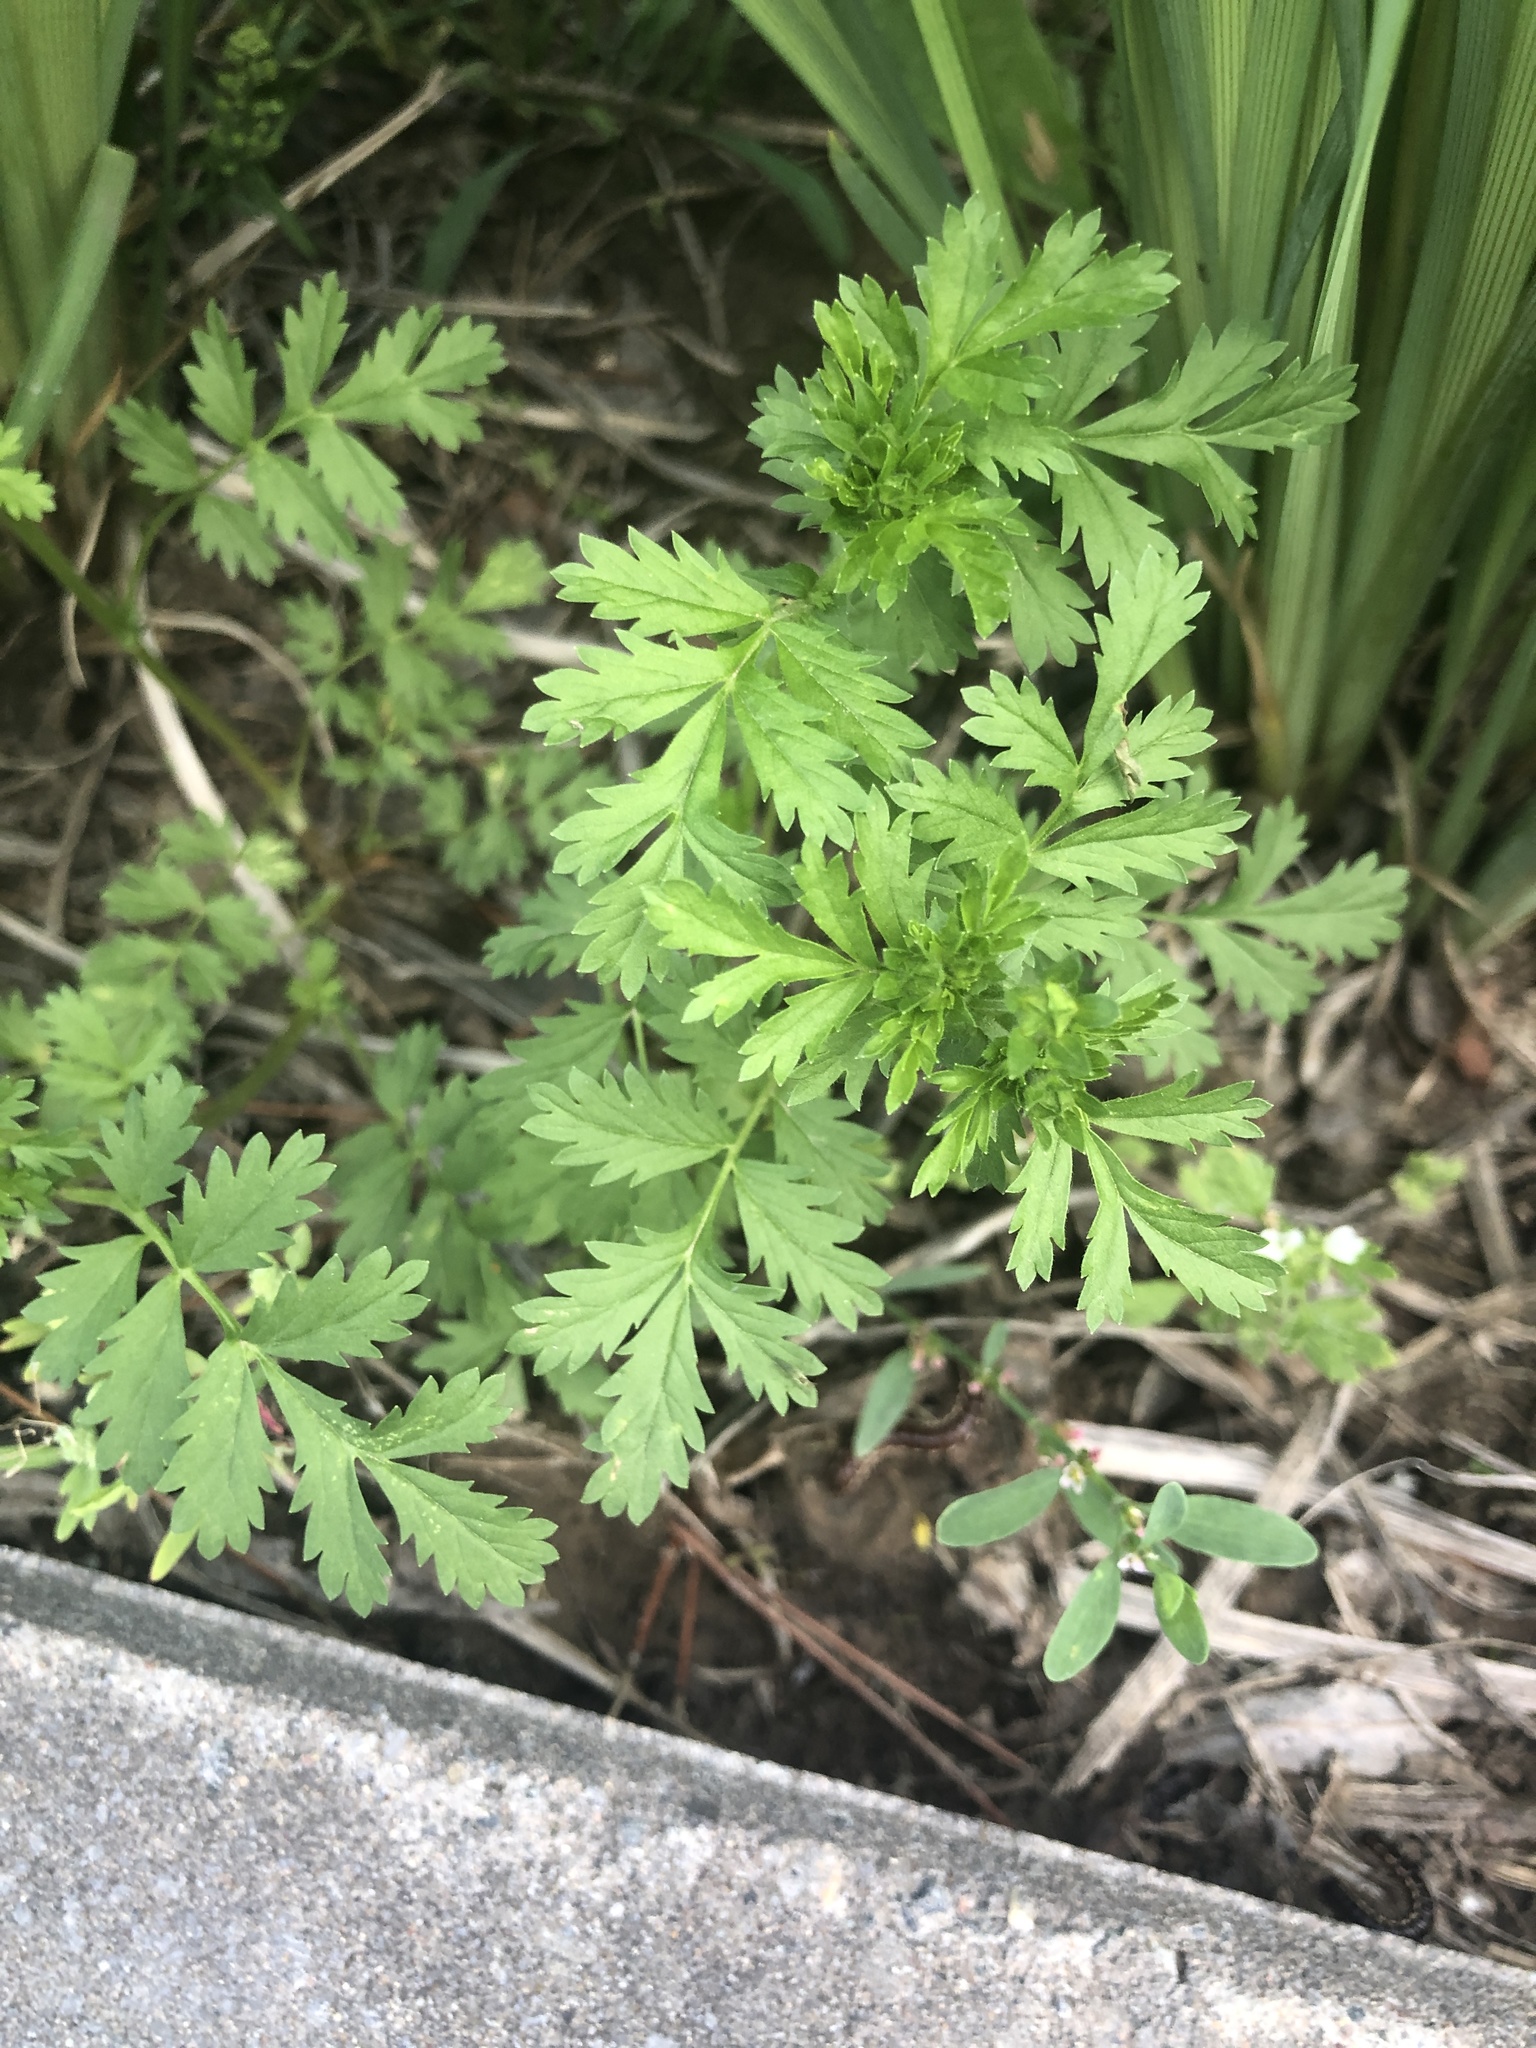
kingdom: Plantae
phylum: Tracheophyta
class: Magnoliopsida
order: Rosales
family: Rosaceae
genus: Potentilla
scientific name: Potentilla supina
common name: Prostrate cinquefoil
